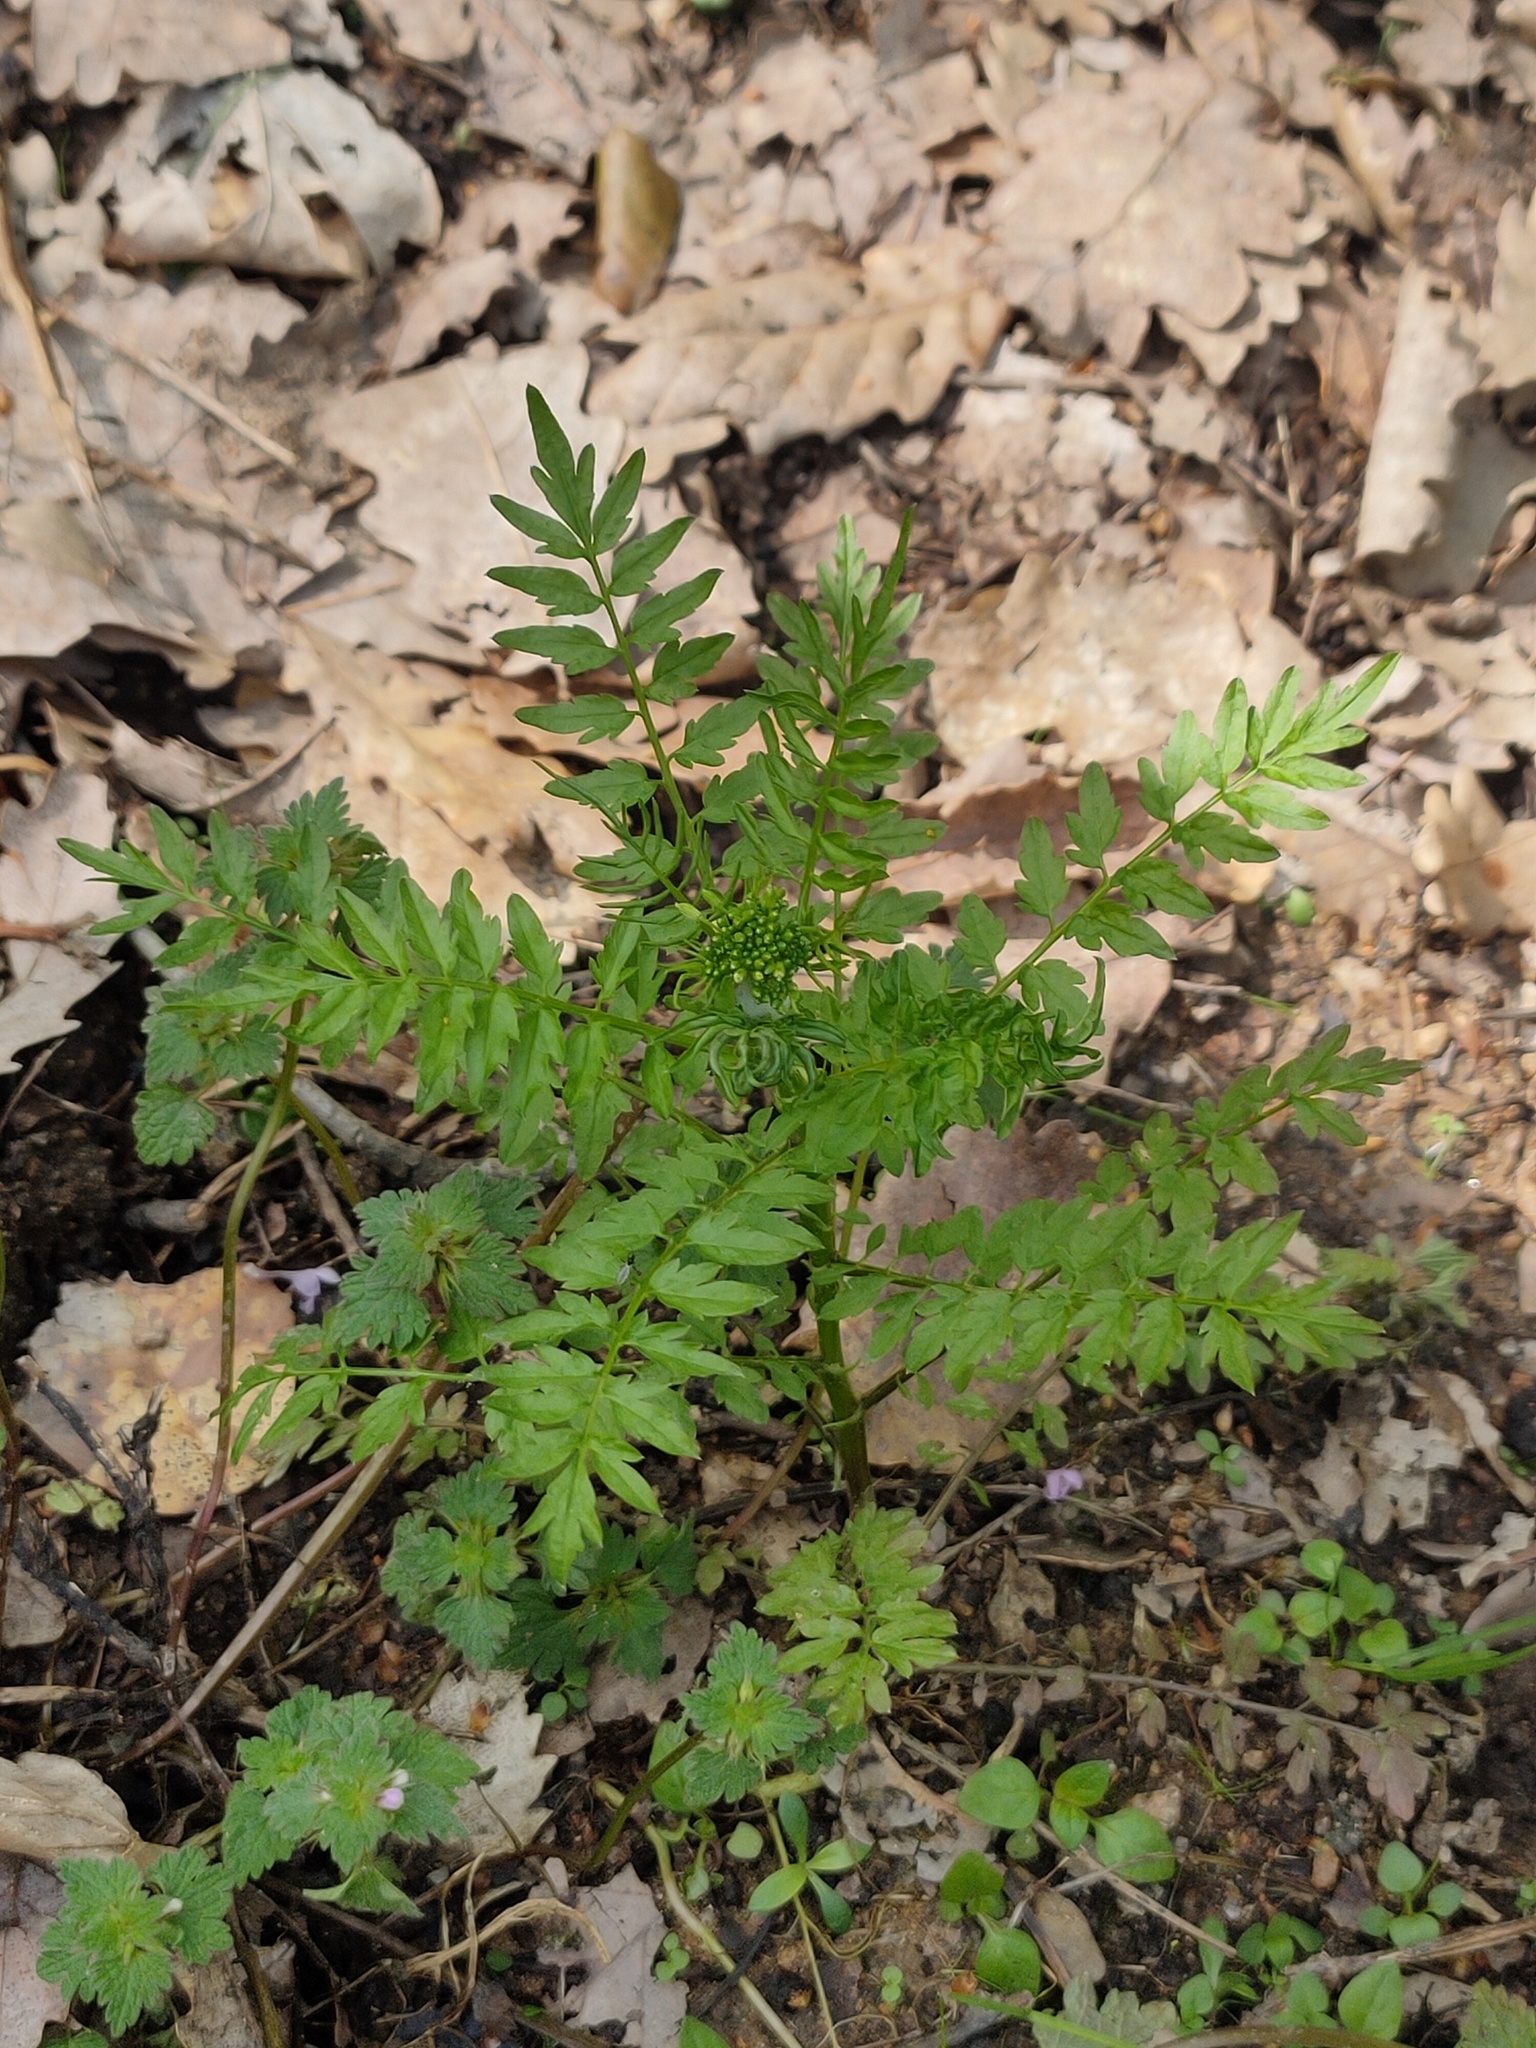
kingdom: Plantae
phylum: Tracheophyta
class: Magnoliopsida
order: Brassicales
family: Brassicaceae
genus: Cardamine
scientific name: Cardamine impatiens
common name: Narrow-leaved bitter-cress
